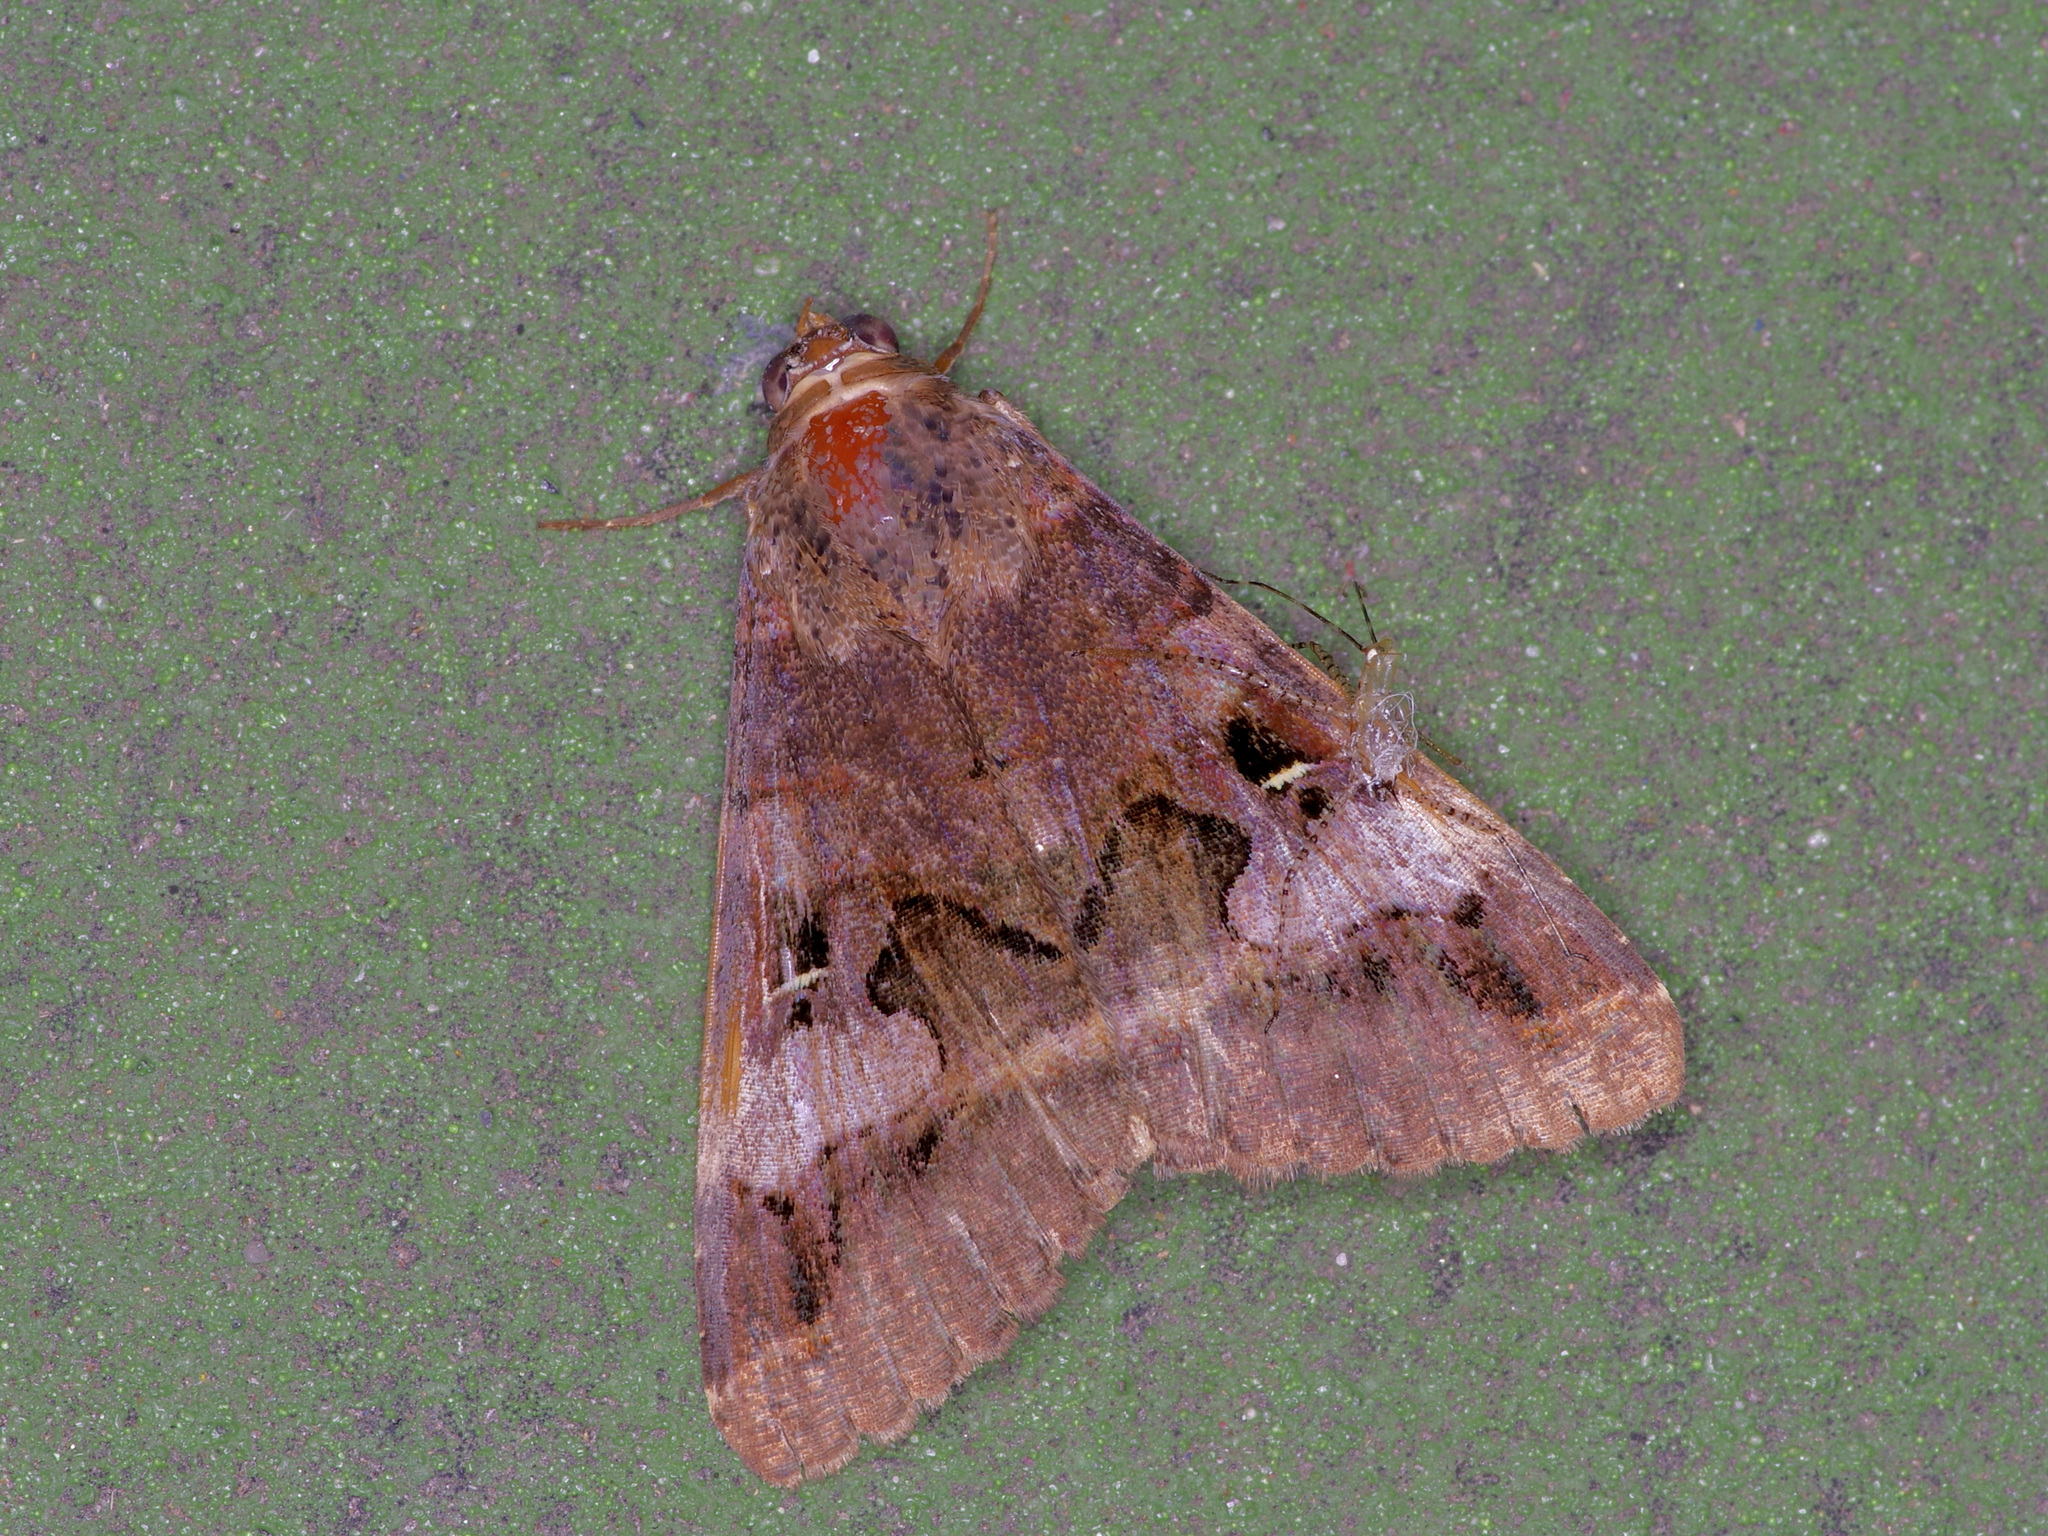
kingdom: Animalia
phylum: Arthropoda
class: Insecta
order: Lepidoptera
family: Erebidae
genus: Melipotis
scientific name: Melipotis perpendicularis
